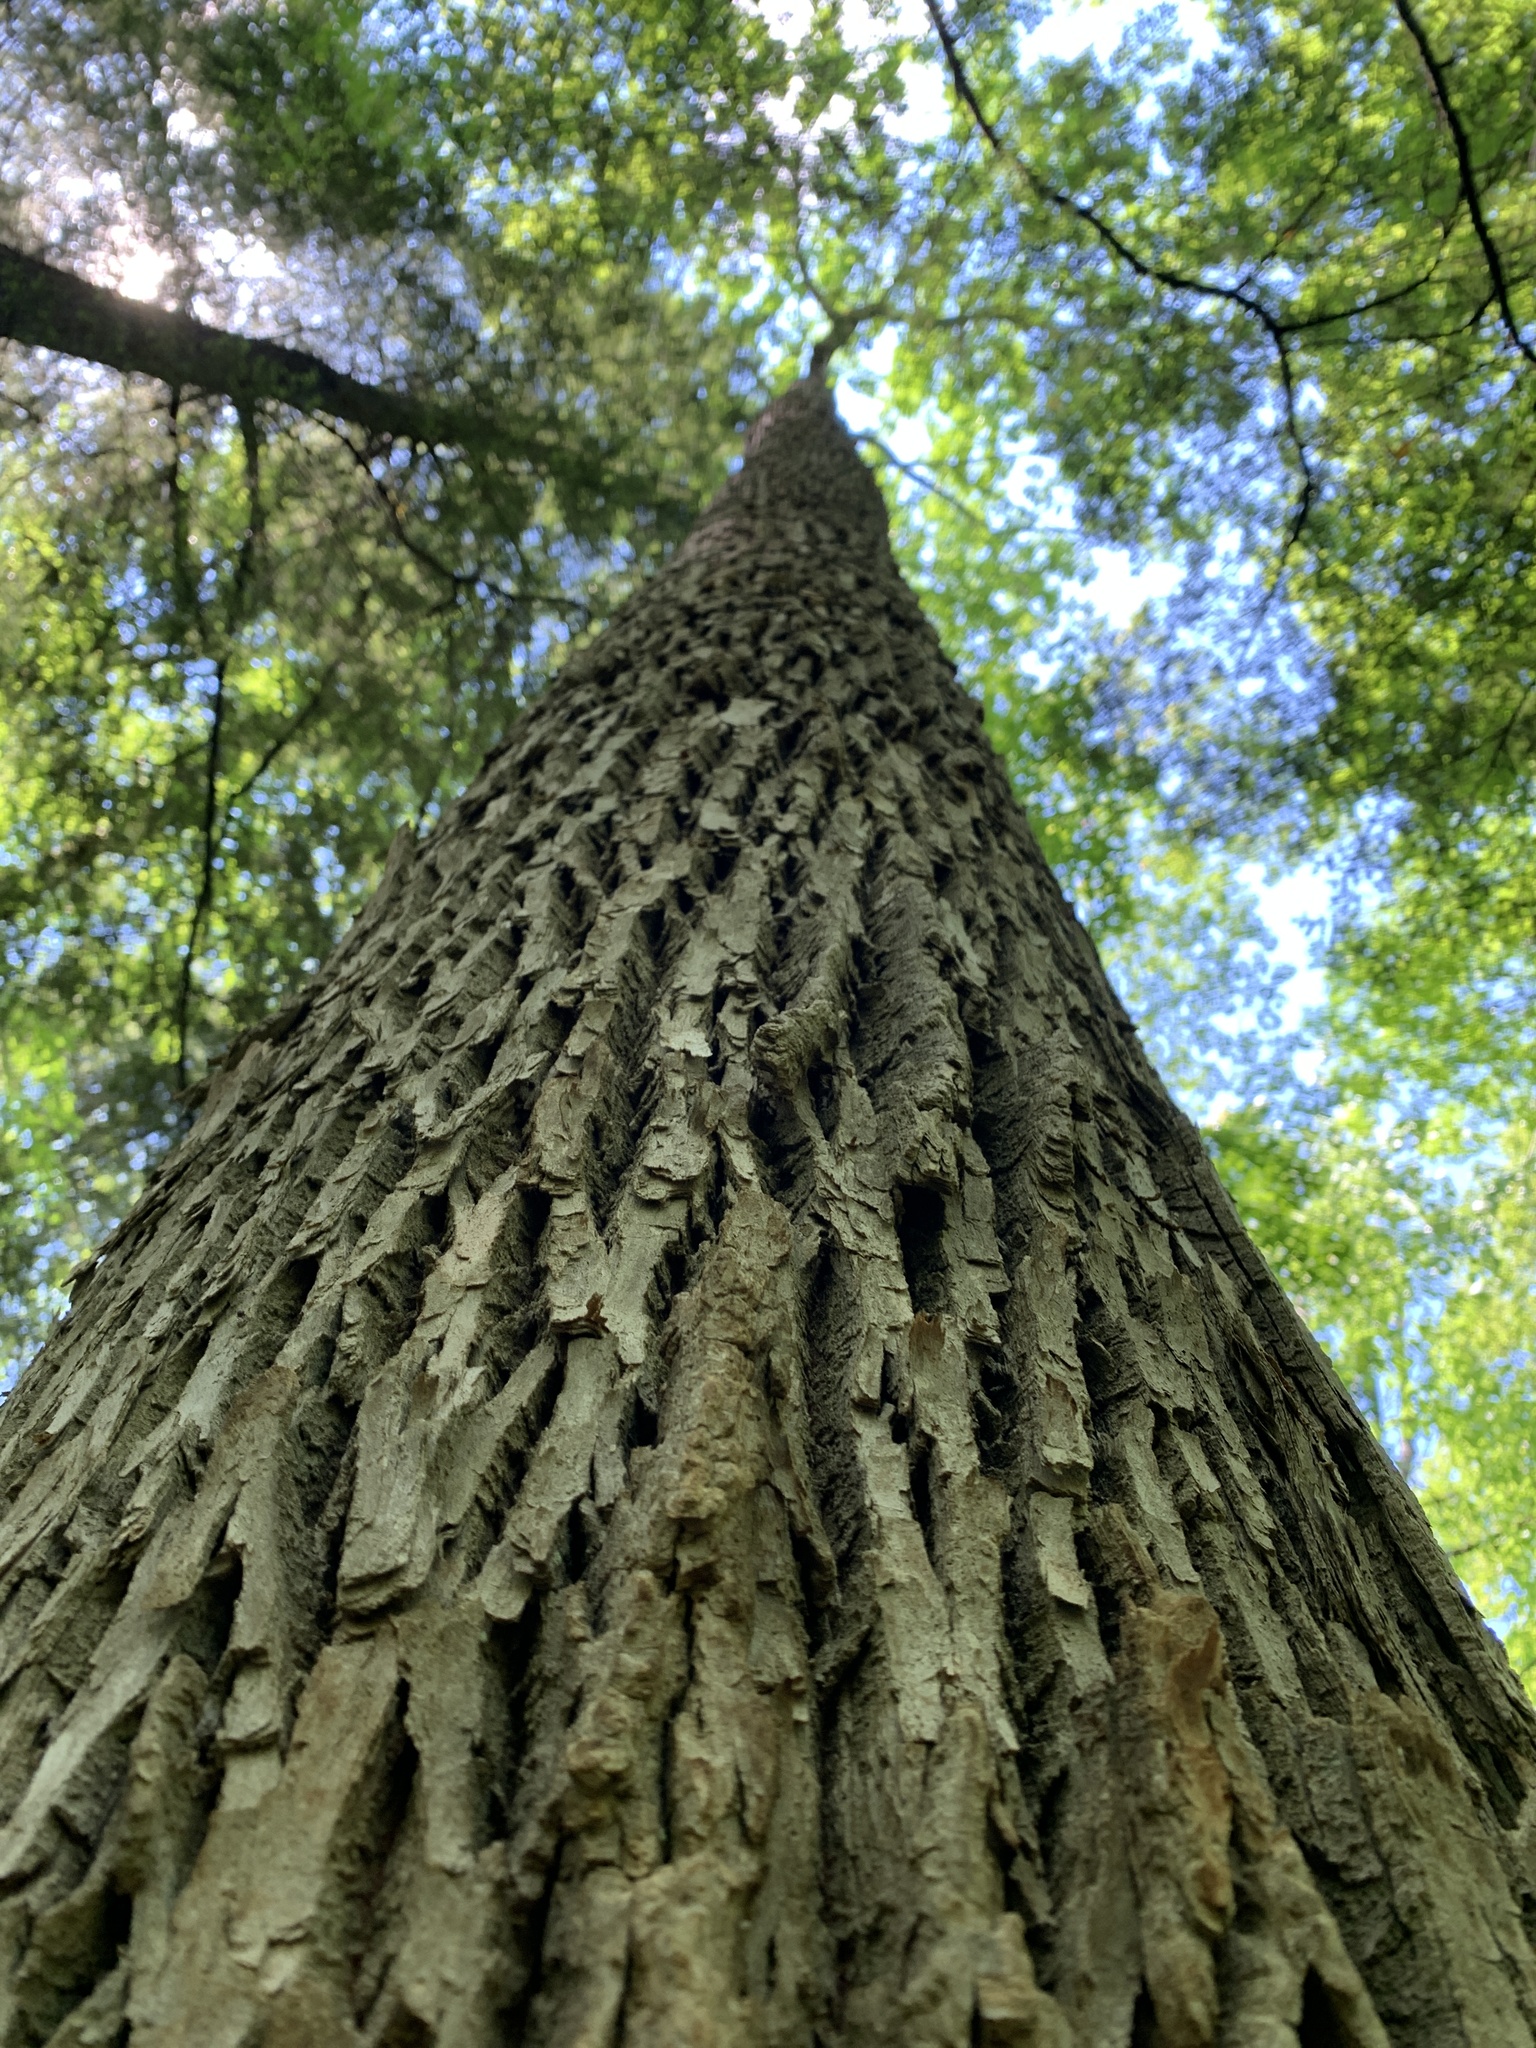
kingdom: Plantae
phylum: Tracheophyta
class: Magnoliopsida
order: Lamiales
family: Oleaceae
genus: Fraxinus
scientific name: Fraxinus americana
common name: White ash
